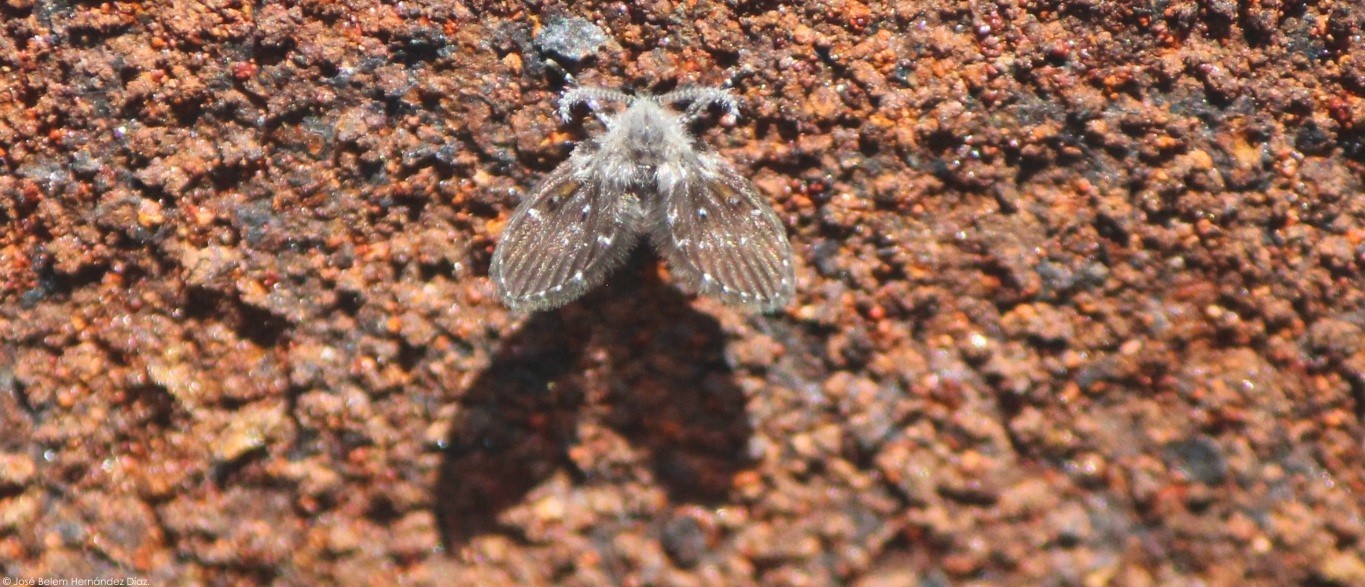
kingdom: Animalia
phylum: Arthropoda
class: Insecta
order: Diptera
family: Psychodidae
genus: Clogmia
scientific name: Clogmia albipunctatus
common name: White-spotted moth fly
